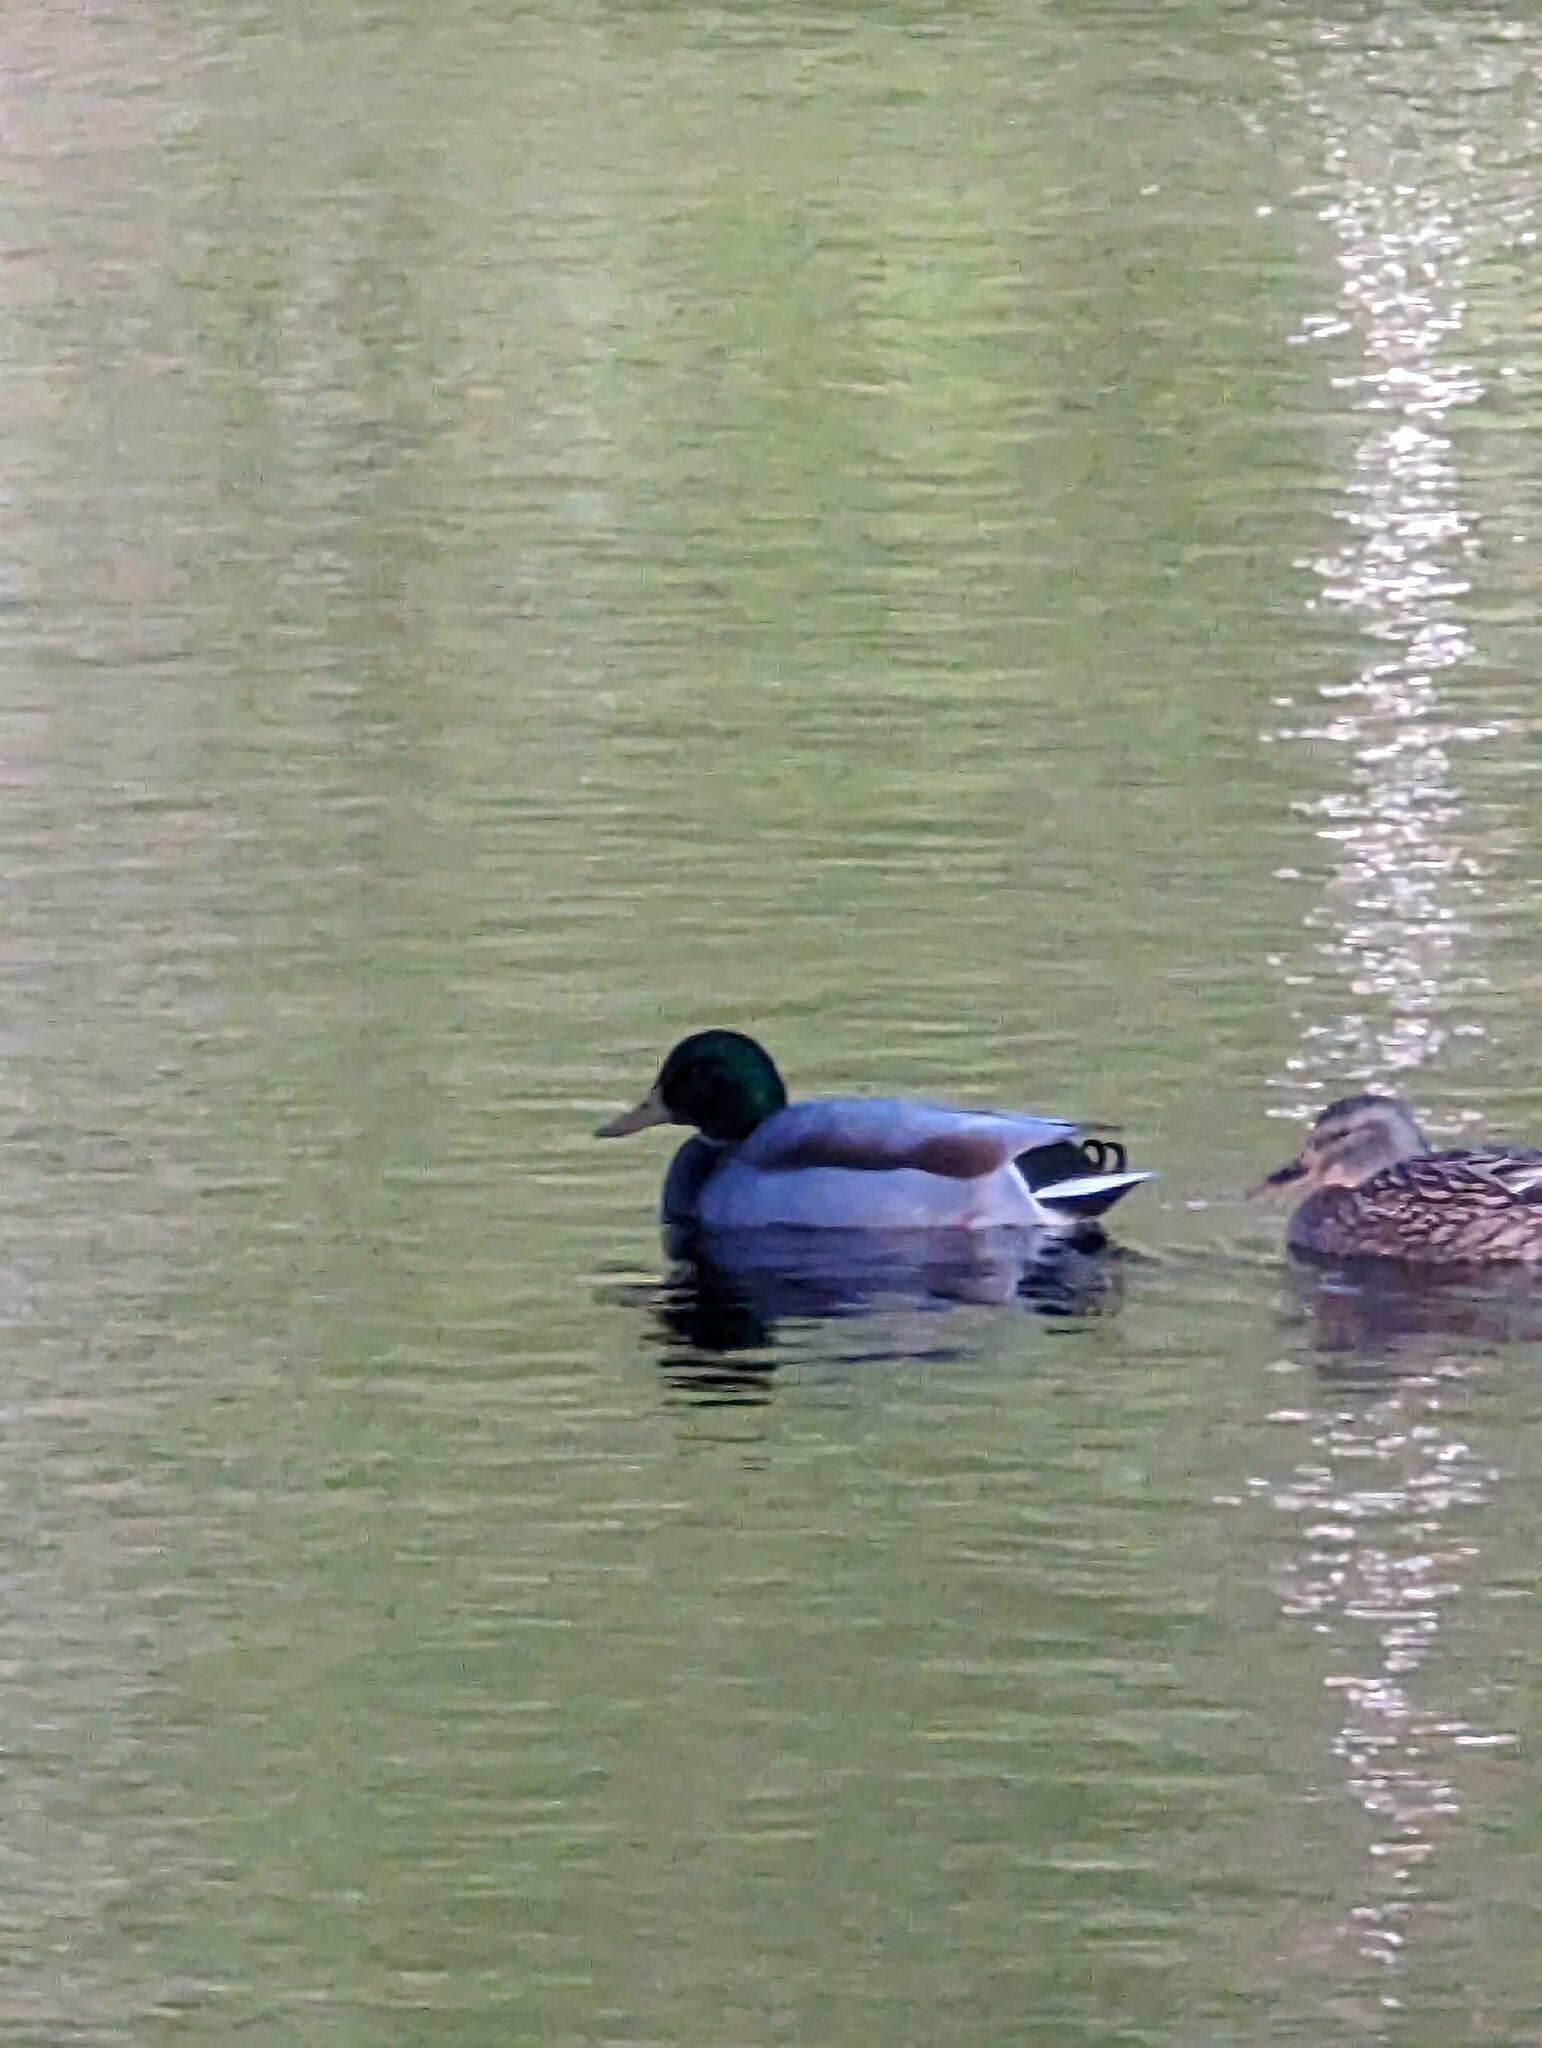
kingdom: Animalia
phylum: Chordata
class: Aves
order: Anseriformes
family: Anatidae
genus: Anas
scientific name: Anas platyrhynchos
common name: Mallard
